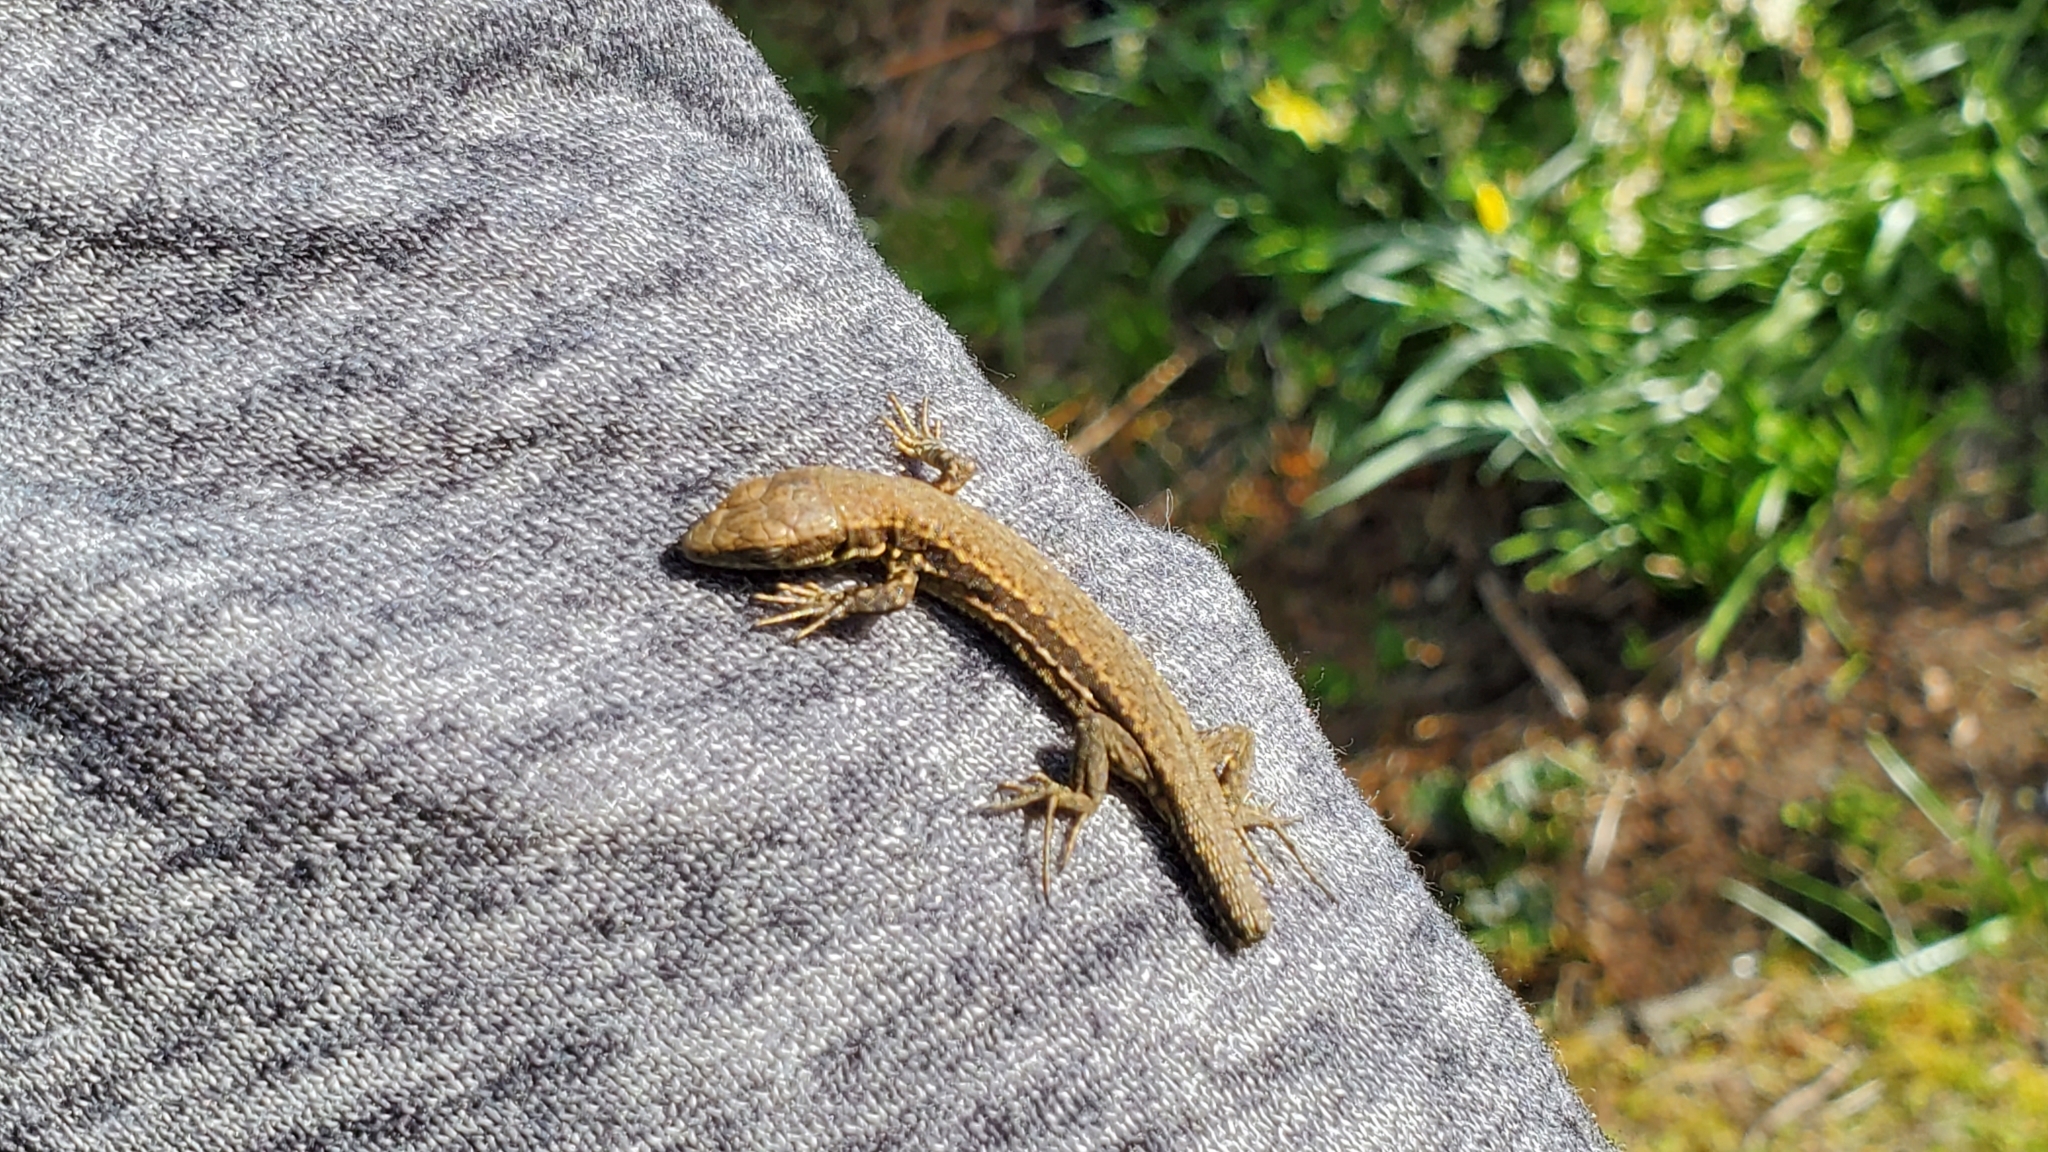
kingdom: Animalia
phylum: Chordata
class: Squamata
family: Lacertidae
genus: Podarcis
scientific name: Podarcis muralis
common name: Common wall lizard
